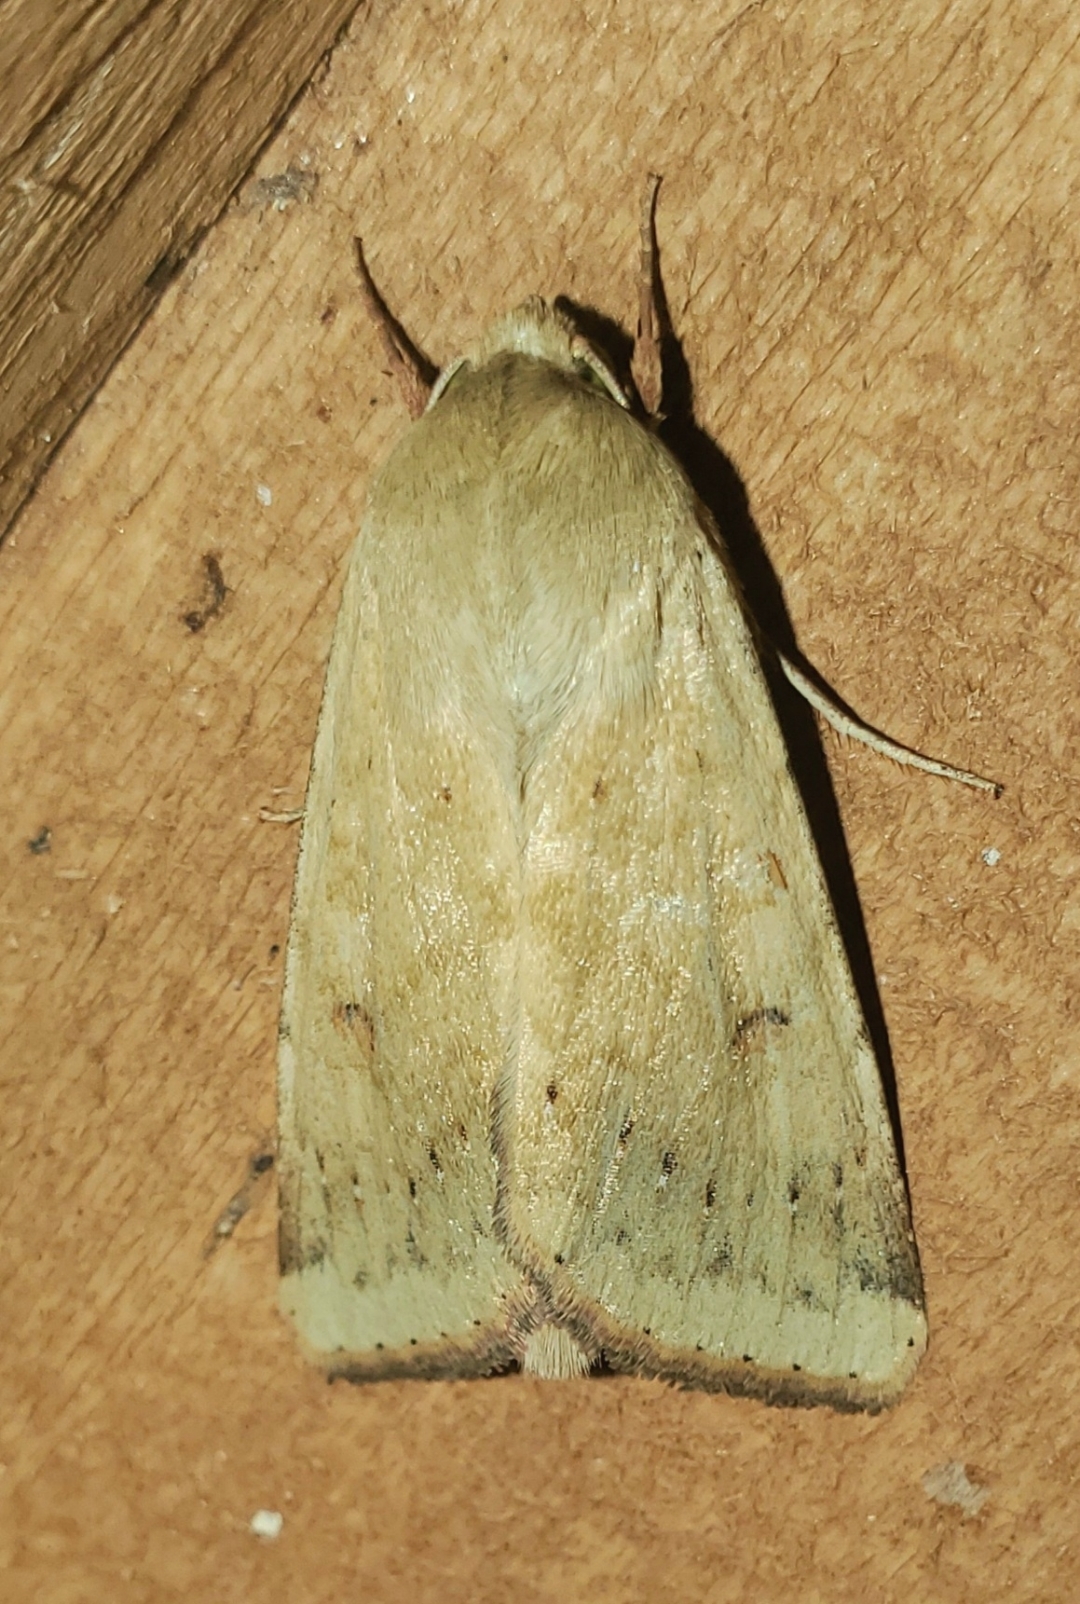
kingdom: Animalia
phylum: Arthropoda
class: Insecta
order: Lepidoptera
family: Noctuidae
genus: Helicoverpa
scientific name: Helicoverpa zea
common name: Bollworm
